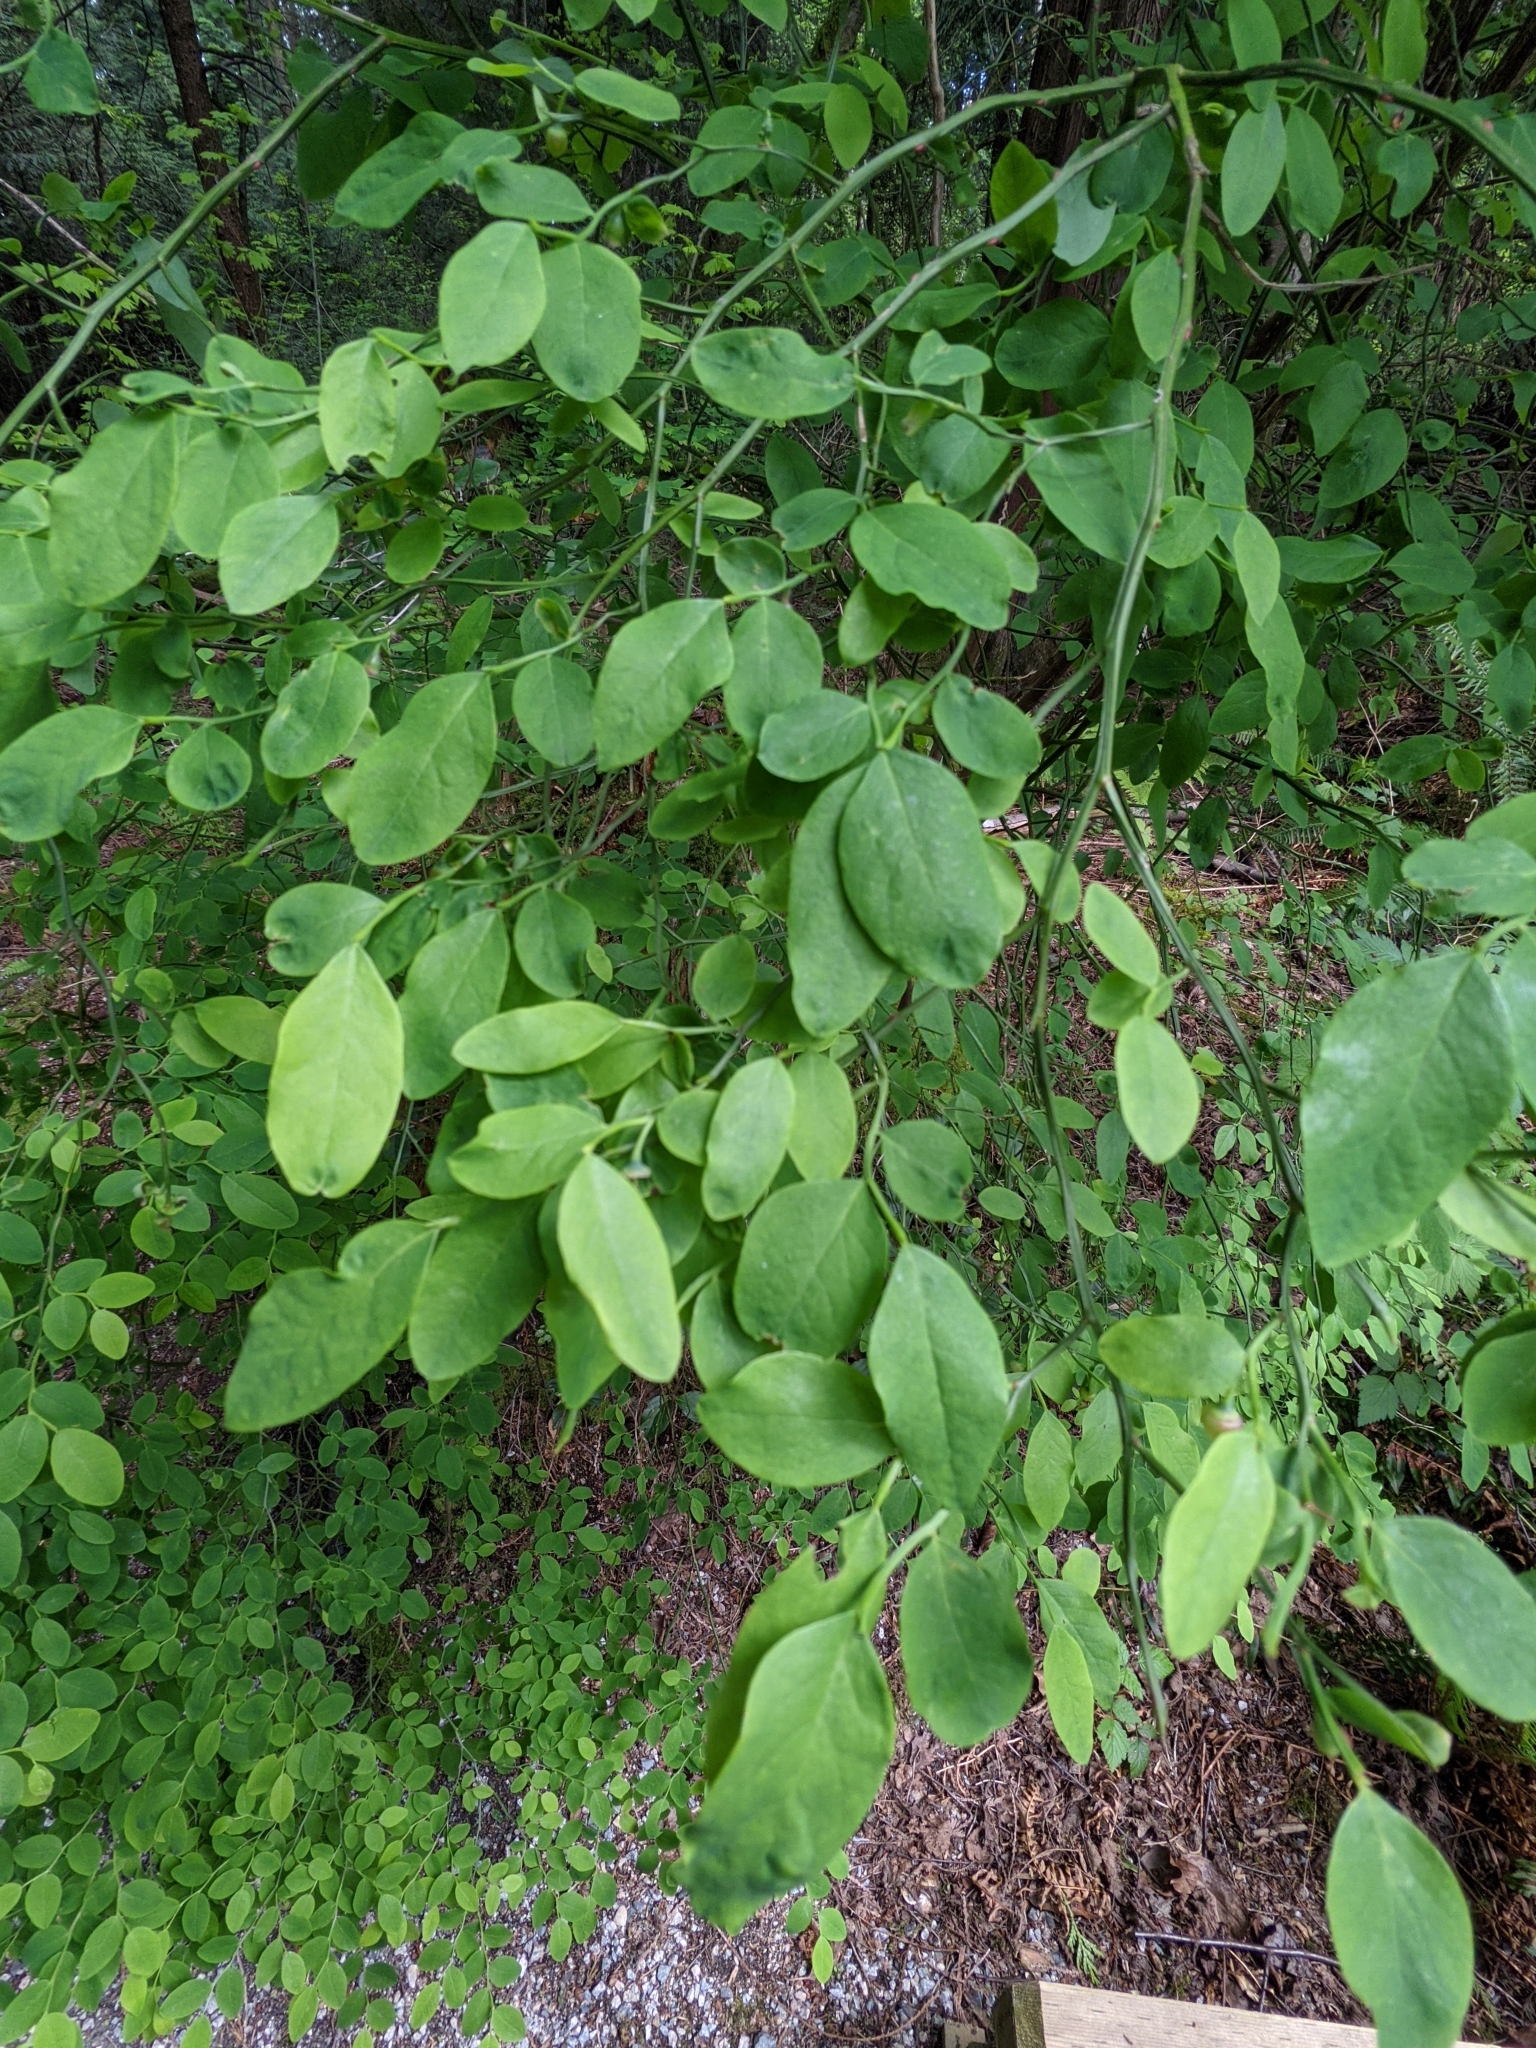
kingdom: Plantae
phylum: Tracheophyta
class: Magnoliopsida
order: Ericales
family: Ericaceae
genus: Vaccinium
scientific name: Vaccinium parvifolium
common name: Red-huckleberry
